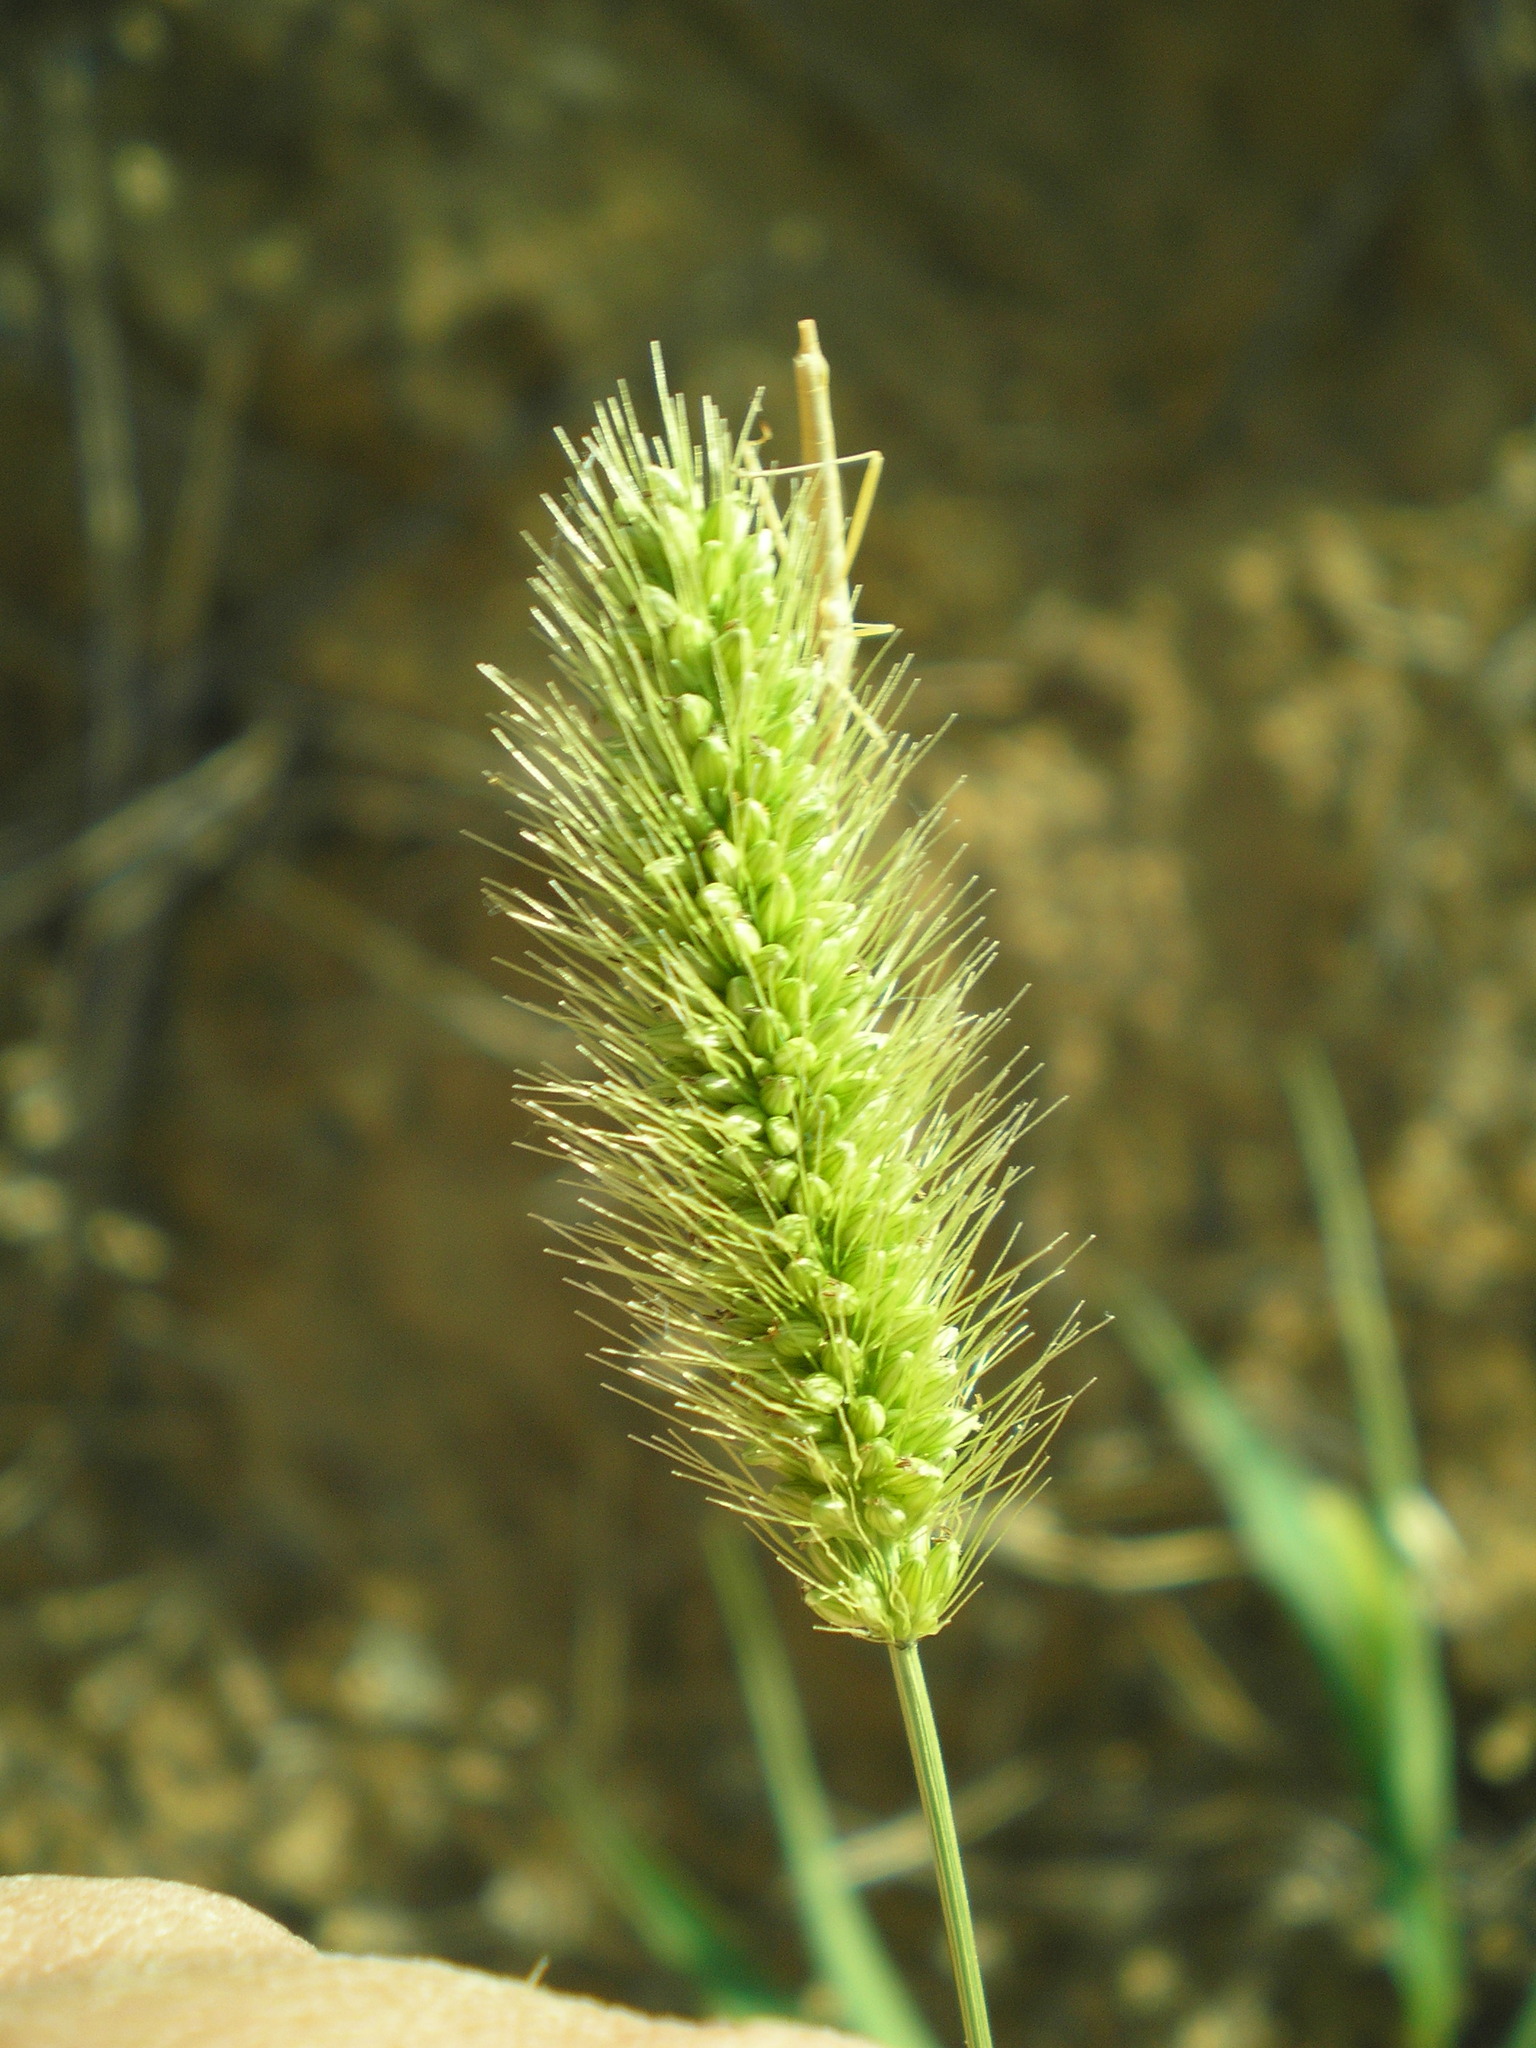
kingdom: Plantae
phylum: Tracheophyta
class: Liliopsida
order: Poales
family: Poaceae
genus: Setaria
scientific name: Setaria viridis
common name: Green bristlegrass
